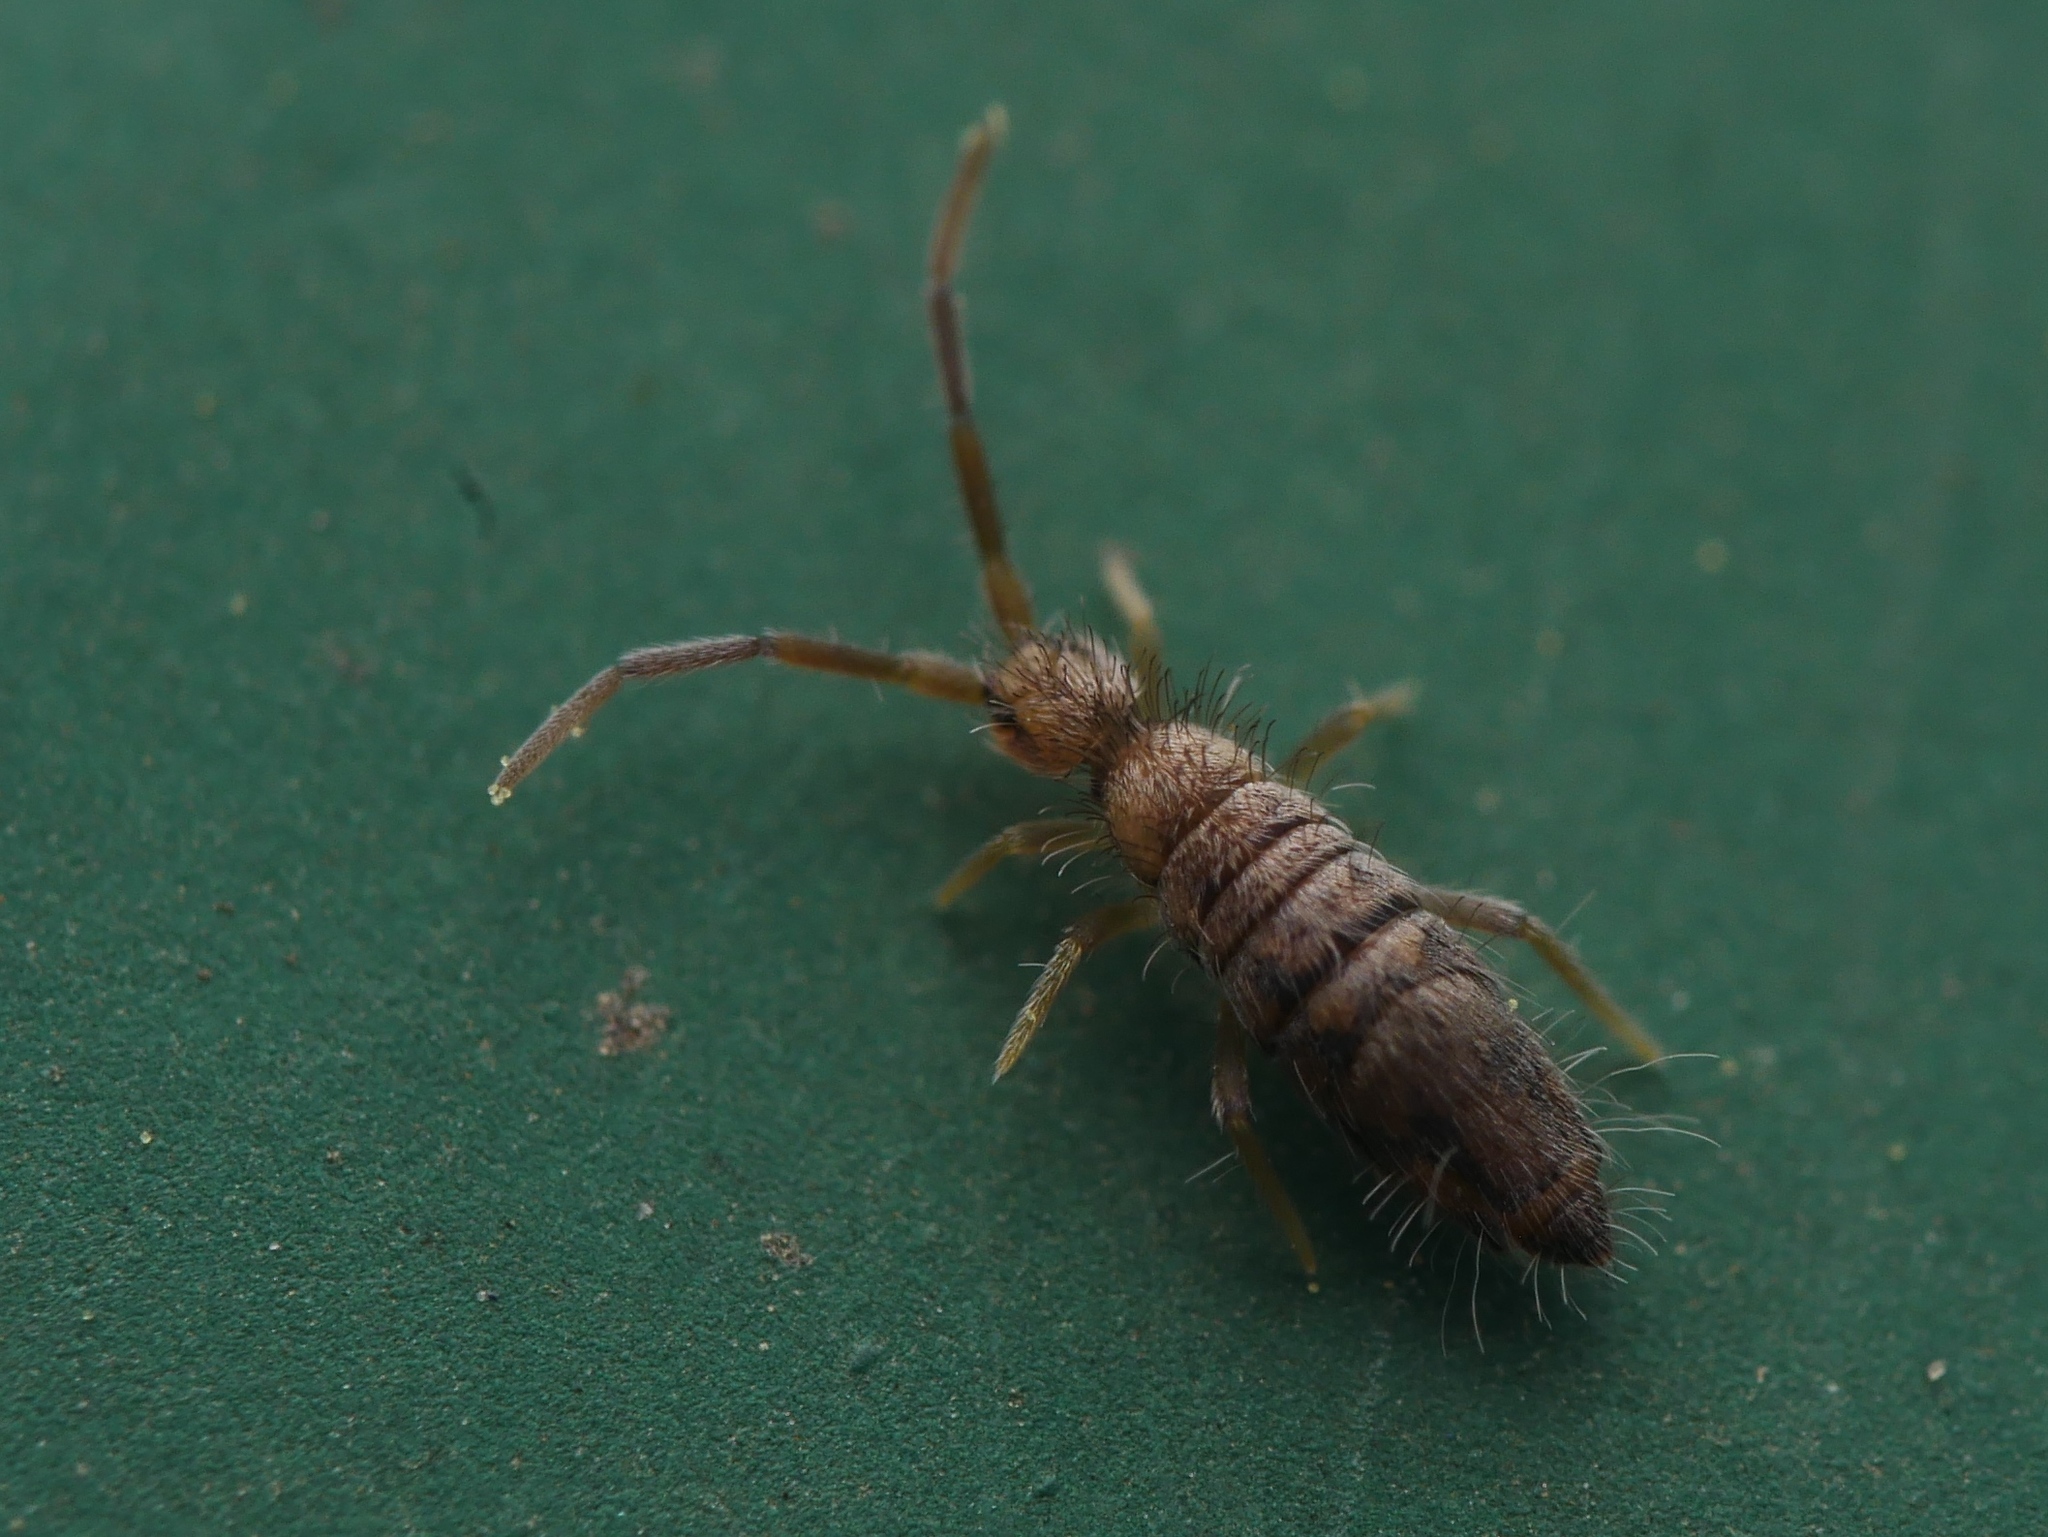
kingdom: Animalia
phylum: Arthropoda
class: Collembola
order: Entomobryomorpha
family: Entomobryidae
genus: Entomobrya
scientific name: Entomobrya nivalis
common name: Cosmopolitan springtail
